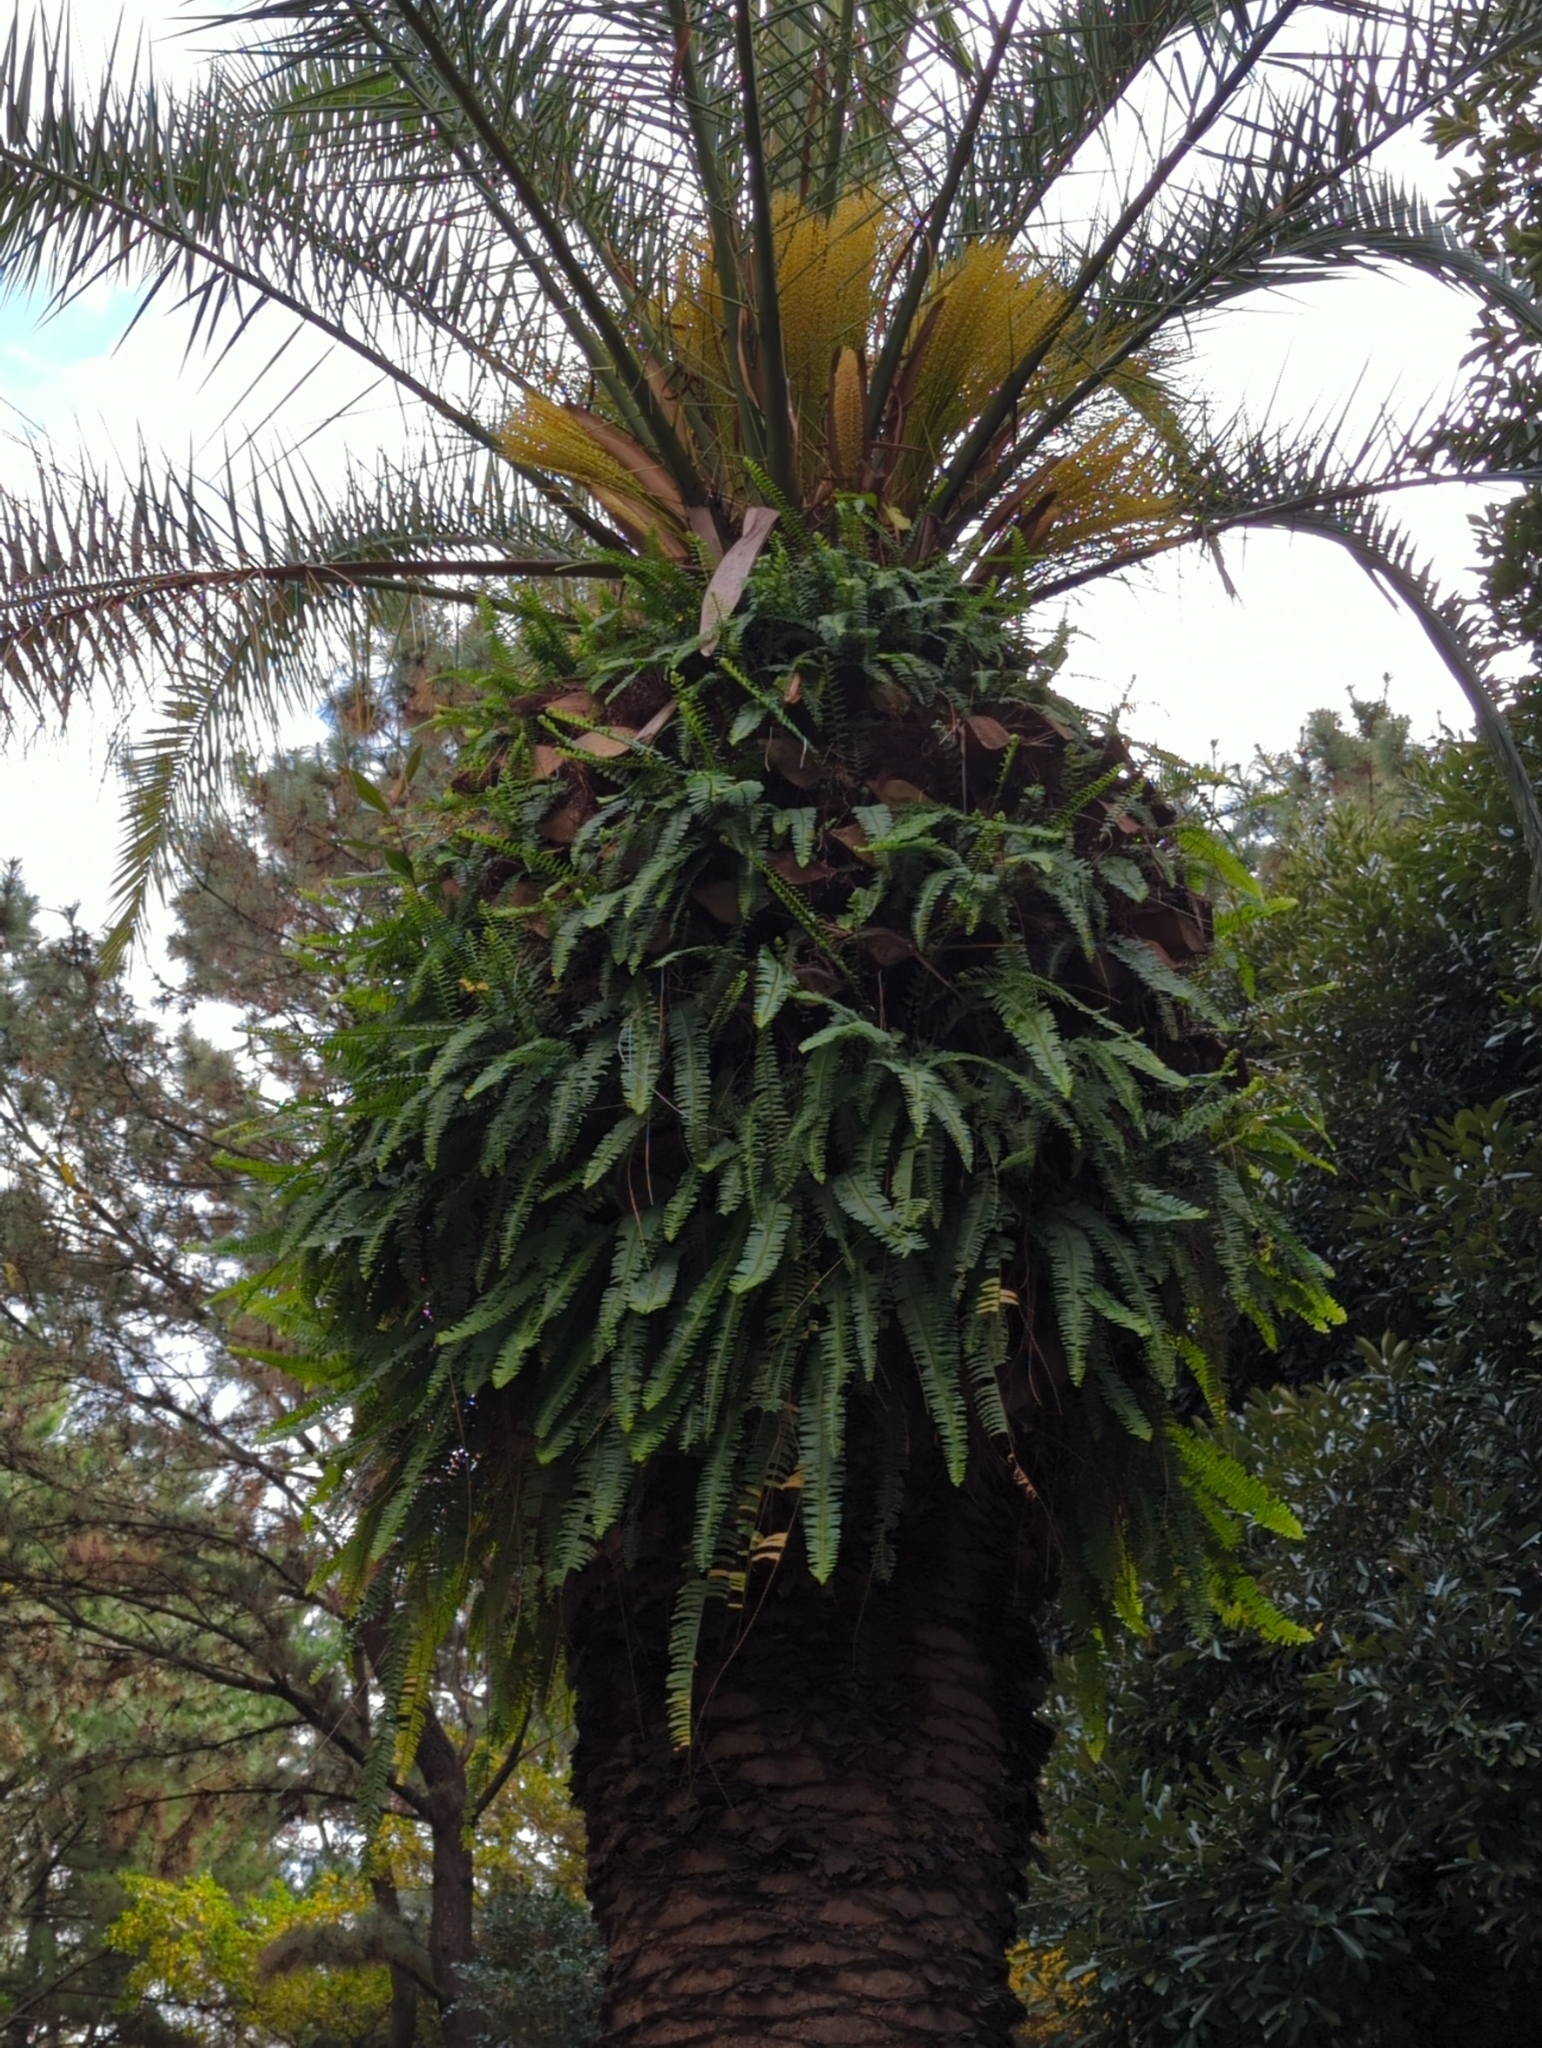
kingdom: Plantae
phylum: Tracheophyta
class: Polypodiopsida
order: Polypodiales
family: Nephrolepidaceae
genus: Nephrolepis
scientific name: Nephrolepis cordifolia
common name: Narrow swordfern
